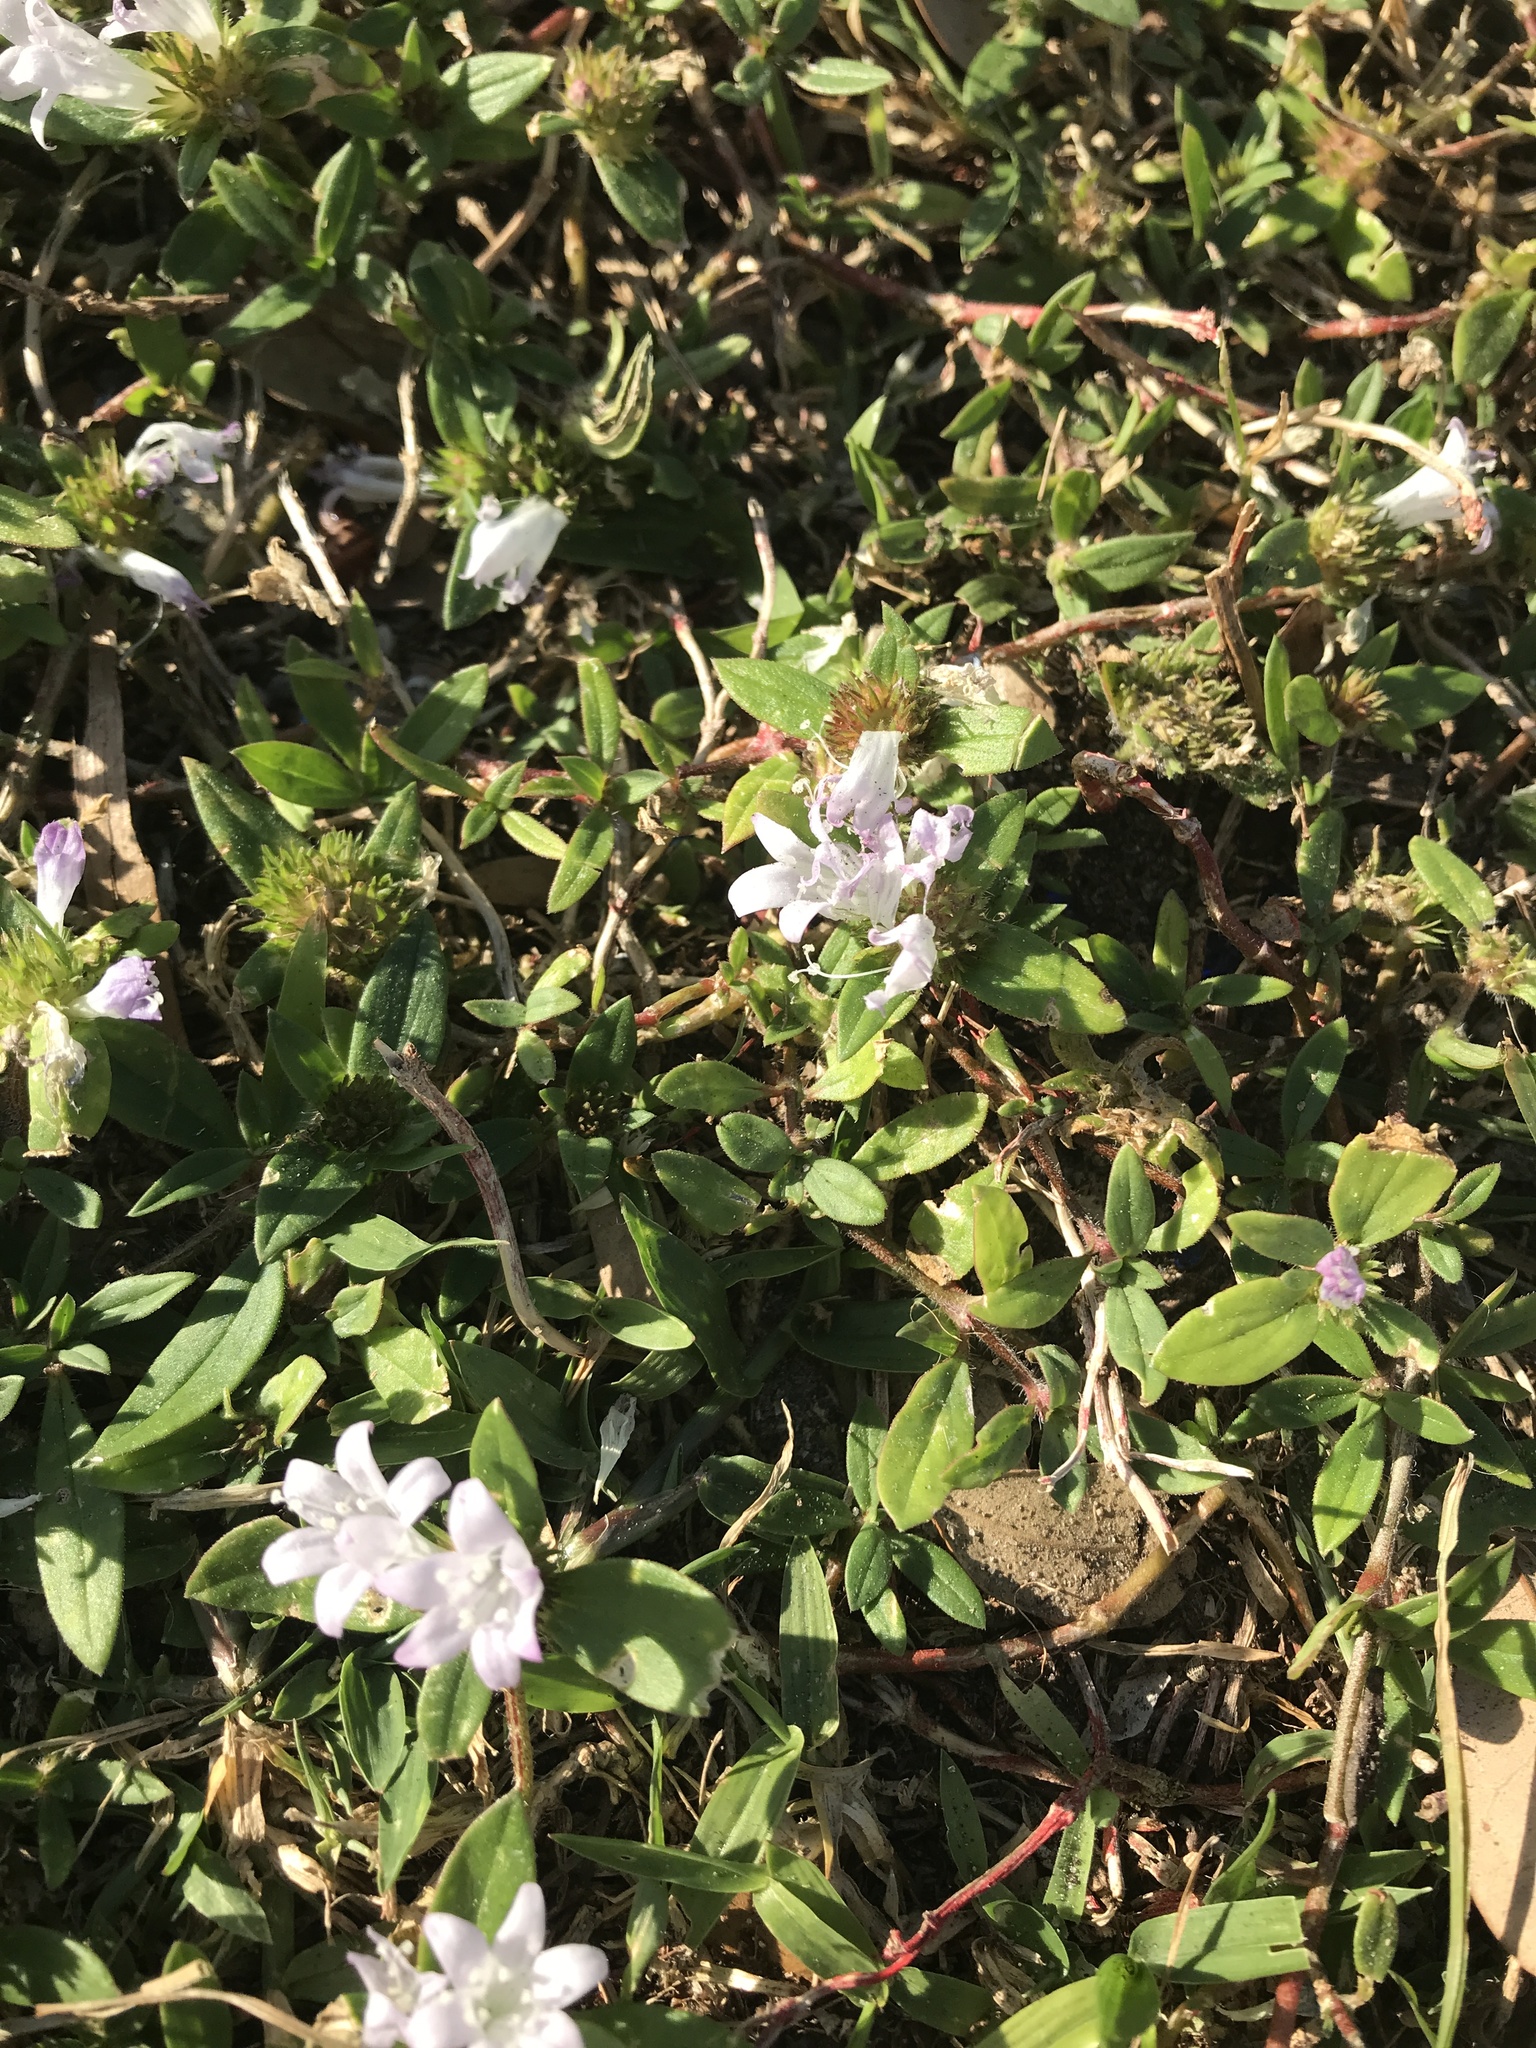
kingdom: Plantae
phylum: Tracheophyta
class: Magnoliopsida
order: Gentianales
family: Rubiaceae
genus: Richardia
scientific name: Richardia grandiflora
